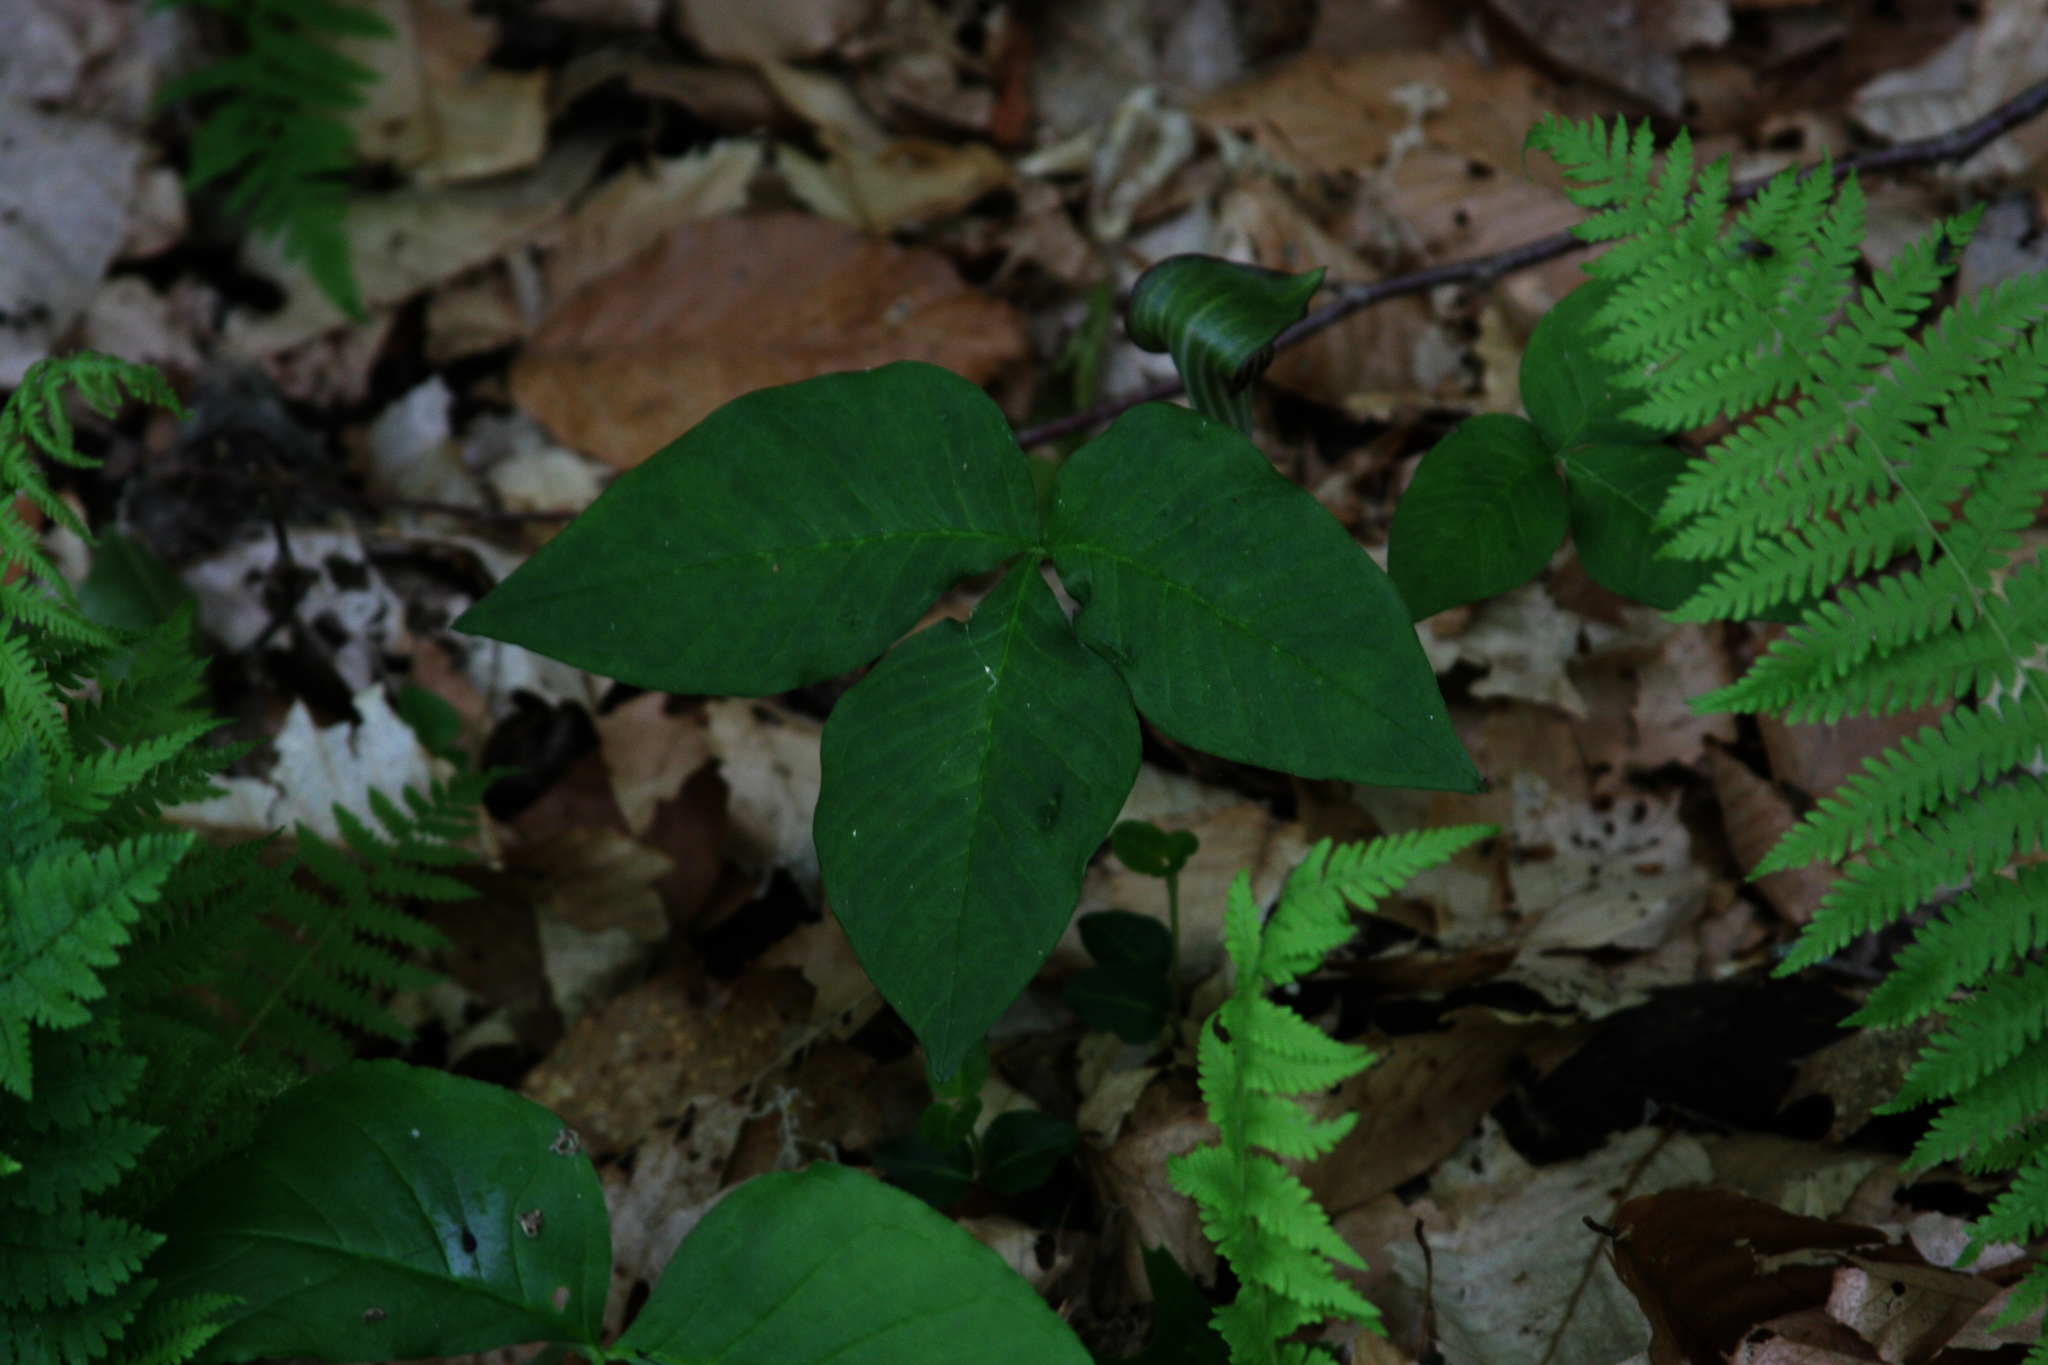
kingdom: Plantae
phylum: Tracheophyta
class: Liliopsida
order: Alismatales
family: Araceae
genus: Arisaema
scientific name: Arisaema triphyllum
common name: Jack-in-the-pulpit
